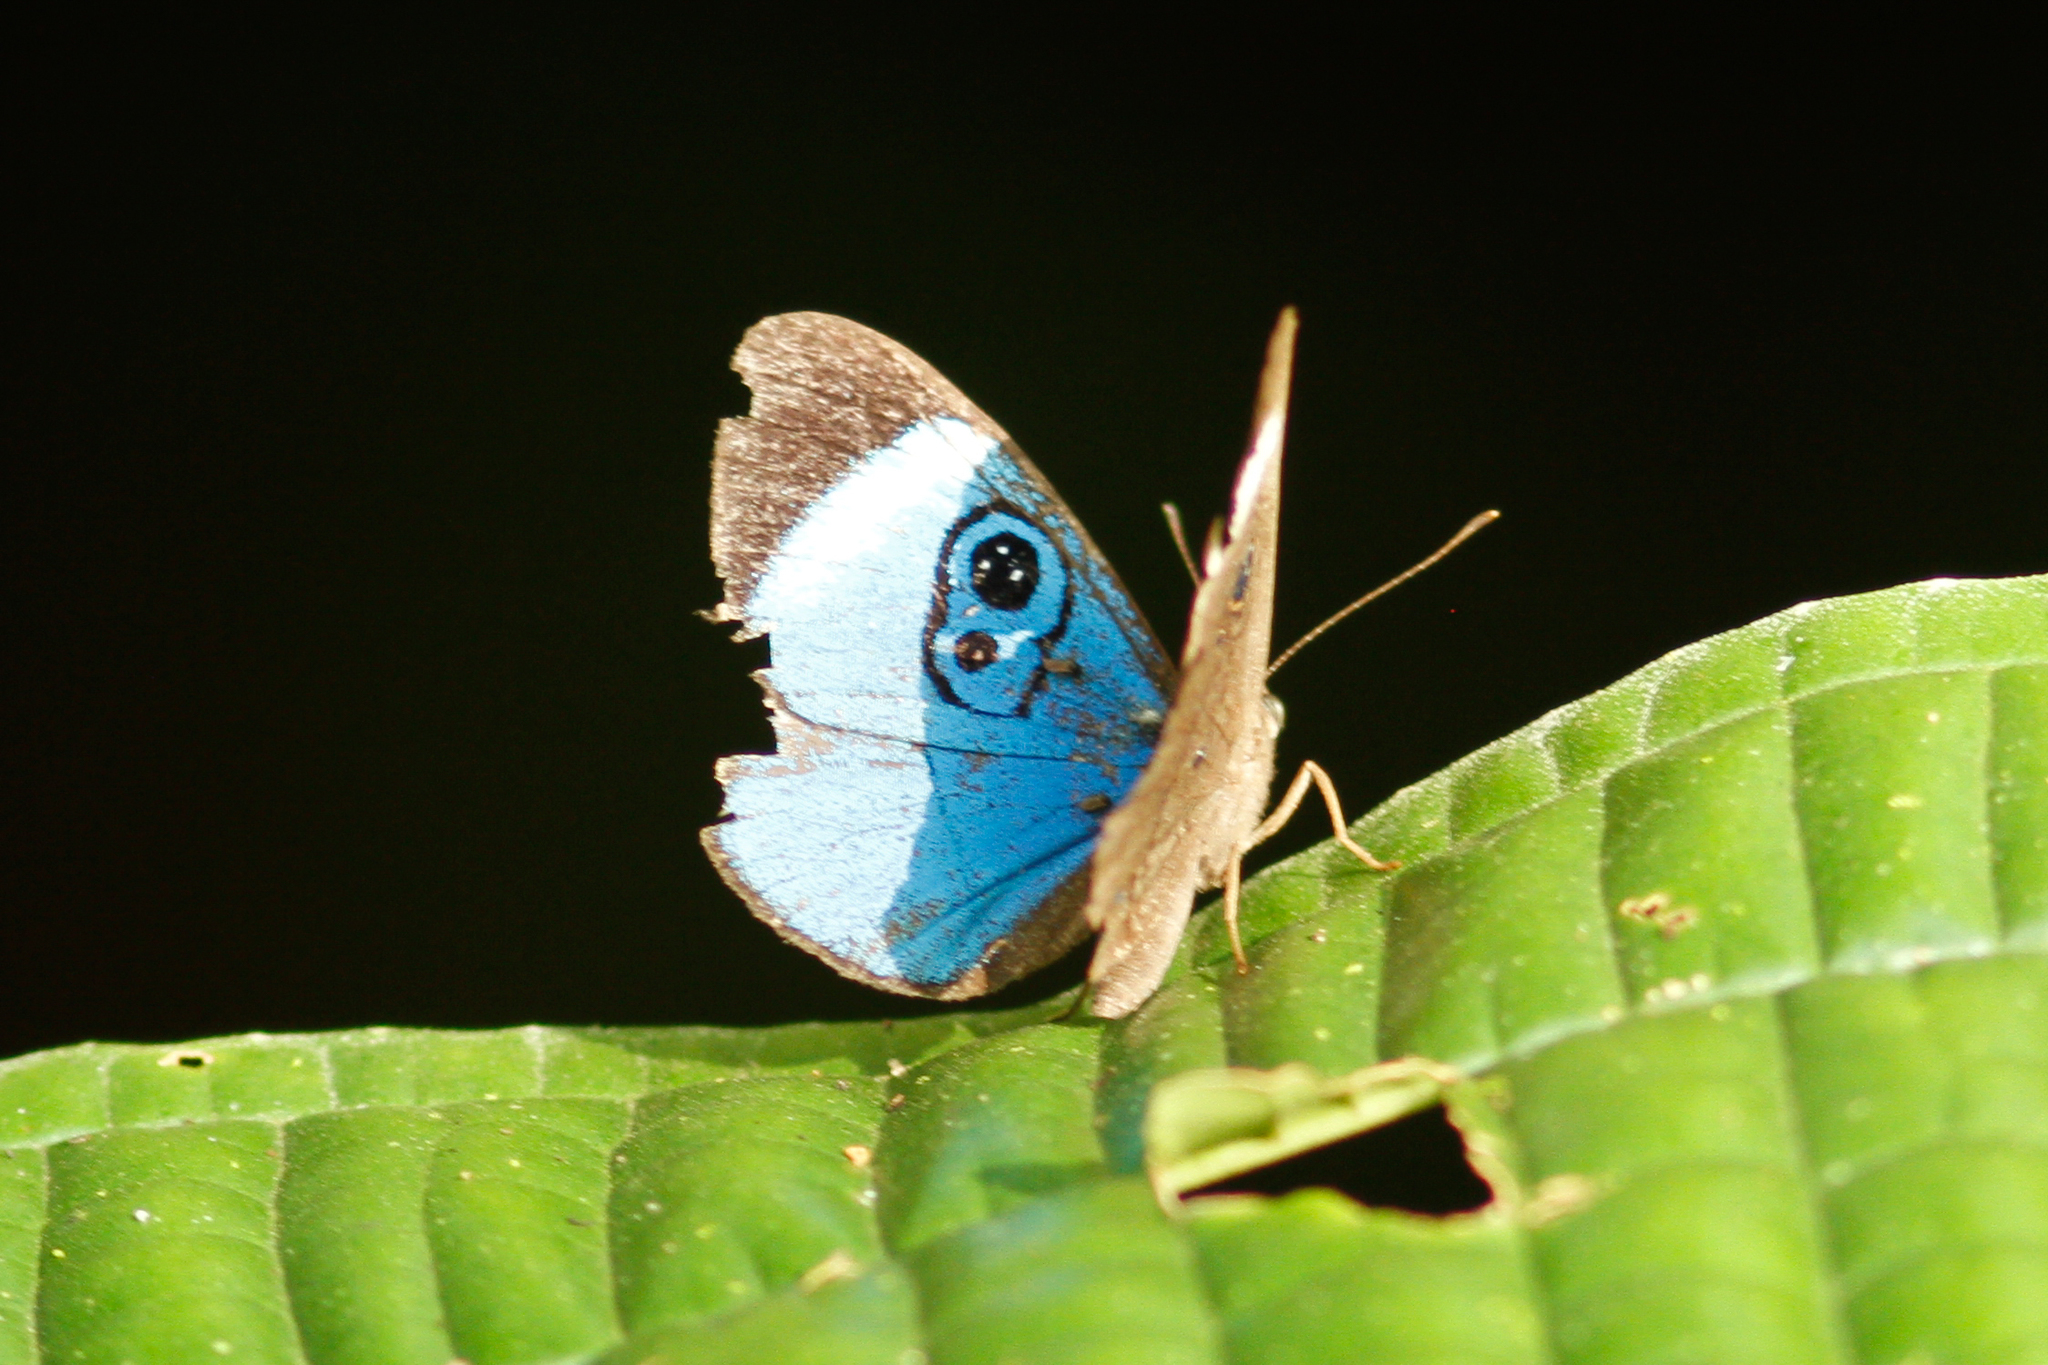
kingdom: Animalia
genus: Mesosemia
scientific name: Mesosemia loruhama
